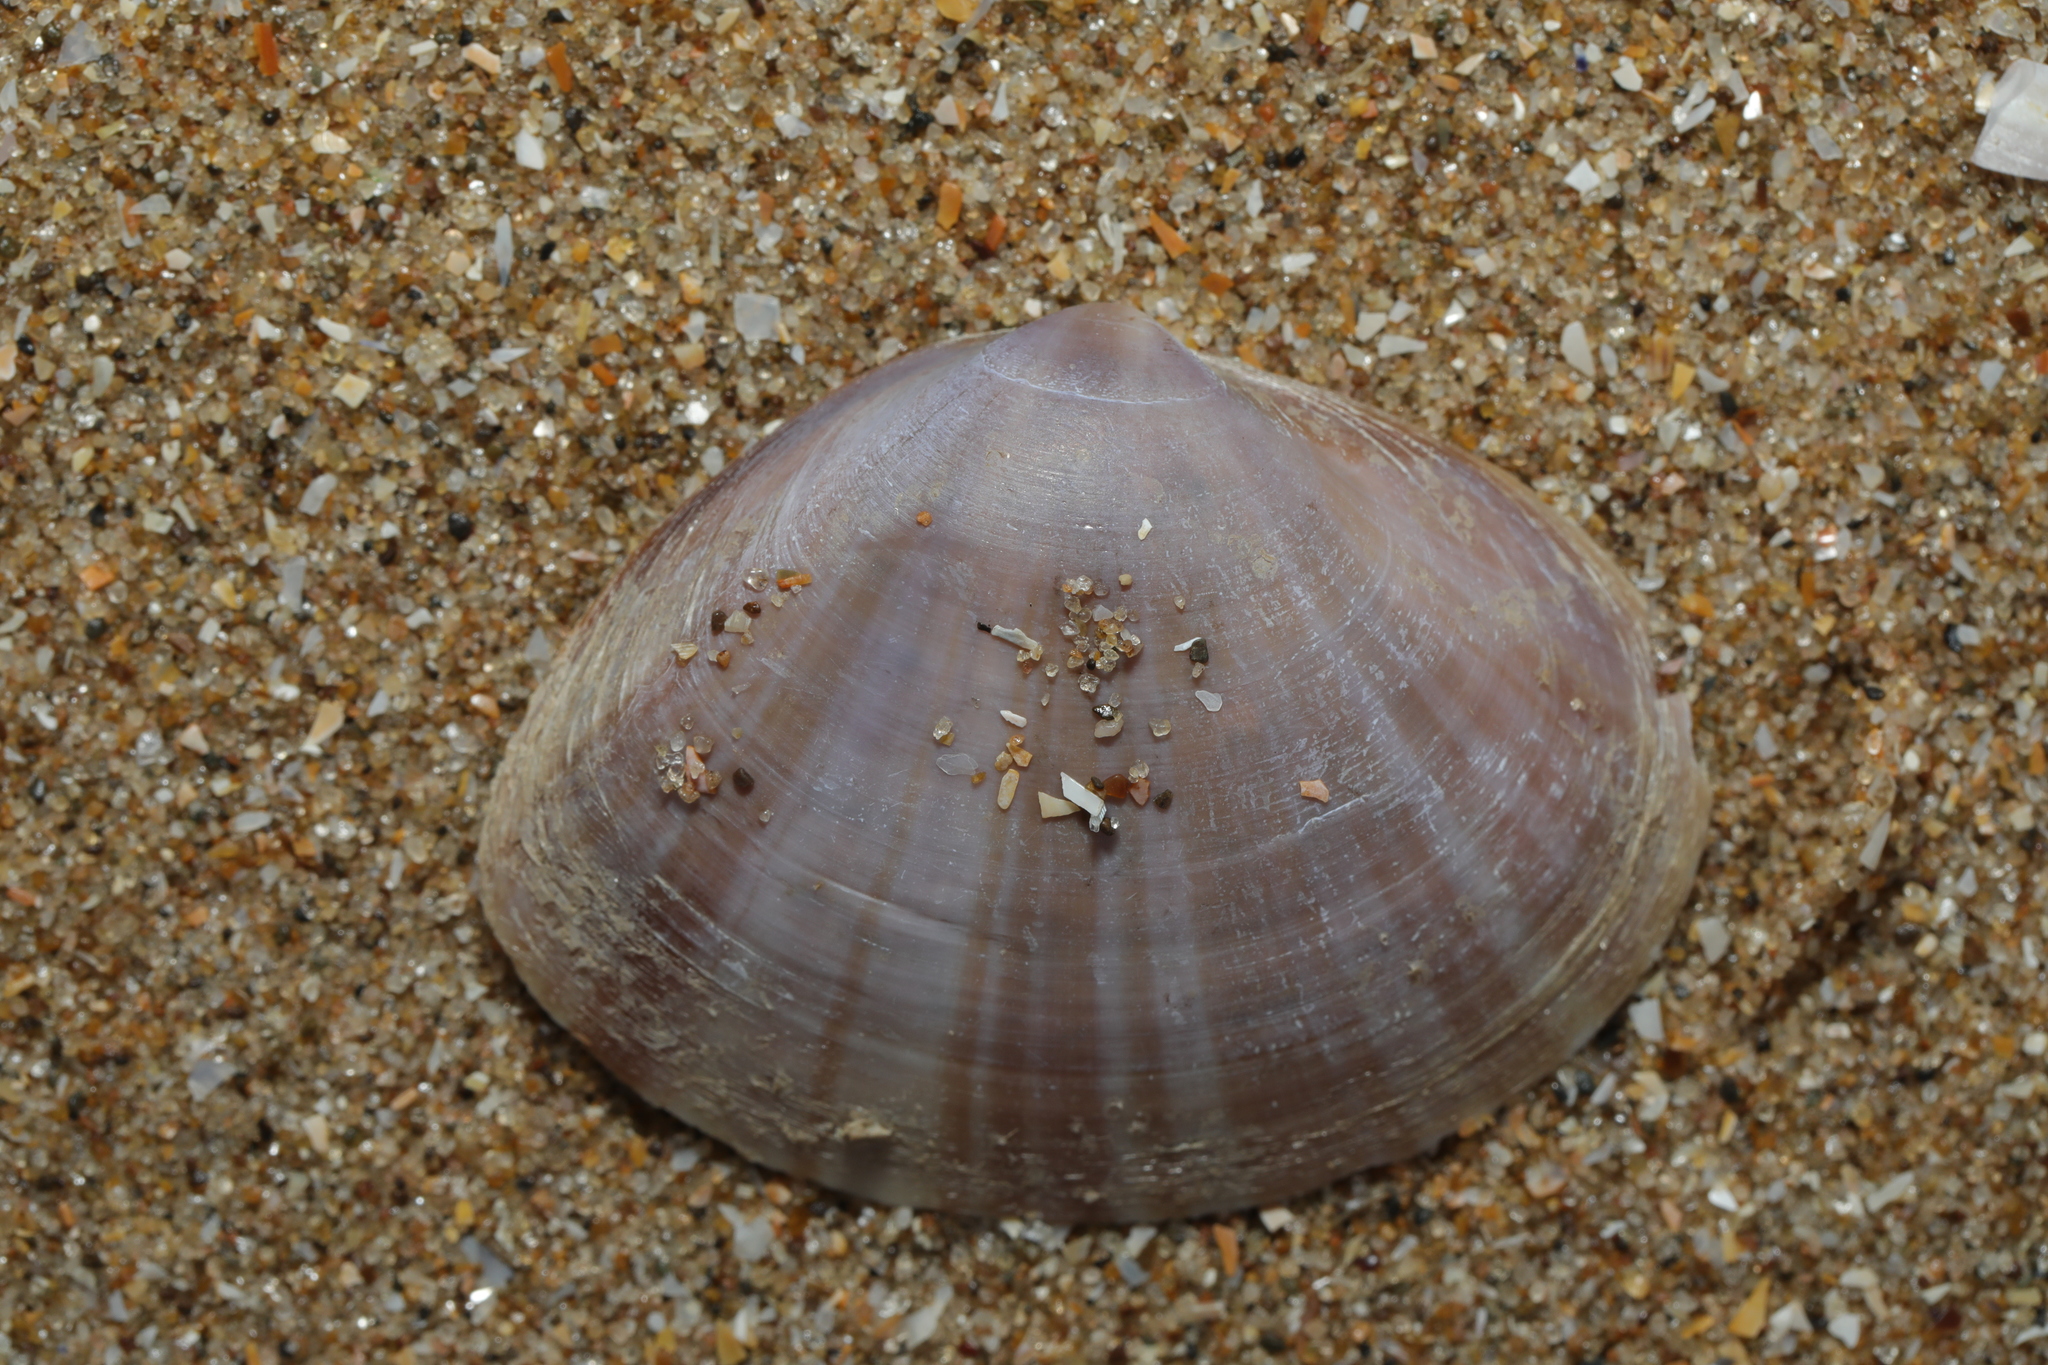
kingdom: Animalia
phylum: Mollusca
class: Bivalvia
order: Venerida
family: Mactridae
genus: Mactra
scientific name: Mactra stultorum
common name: Rayed trough shell
